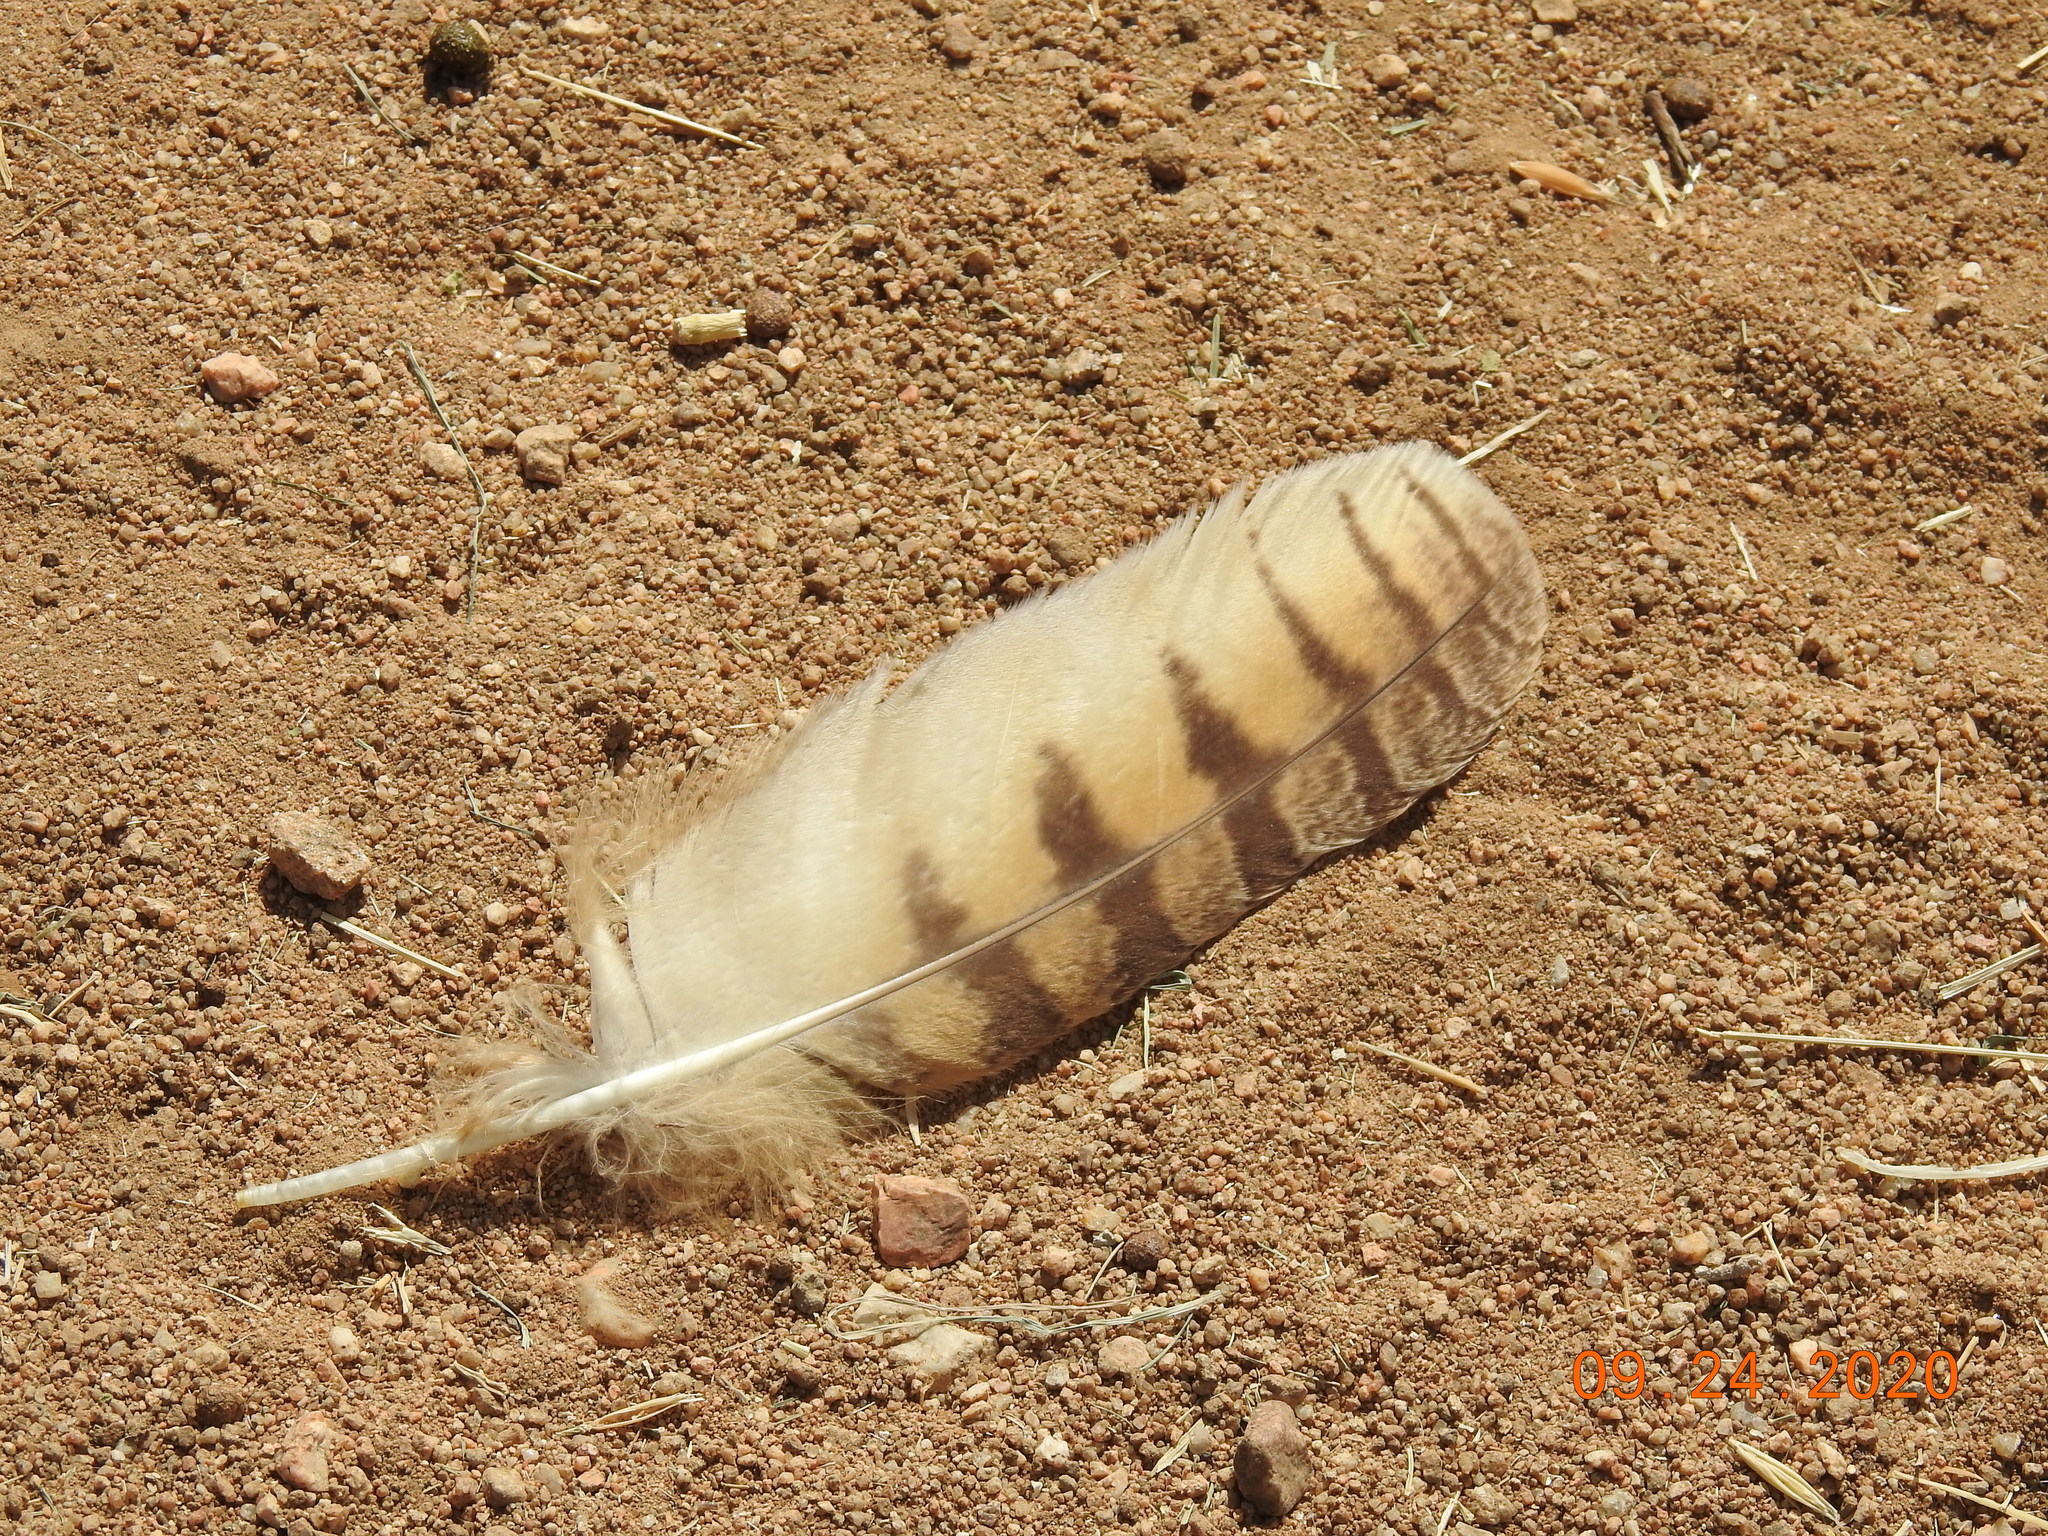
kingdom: Animalia
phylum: Chordata
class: Aves
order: Strigiformes
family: Strigidae
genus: Bubo
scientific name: Bubo virginianus
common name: Great horned owl
